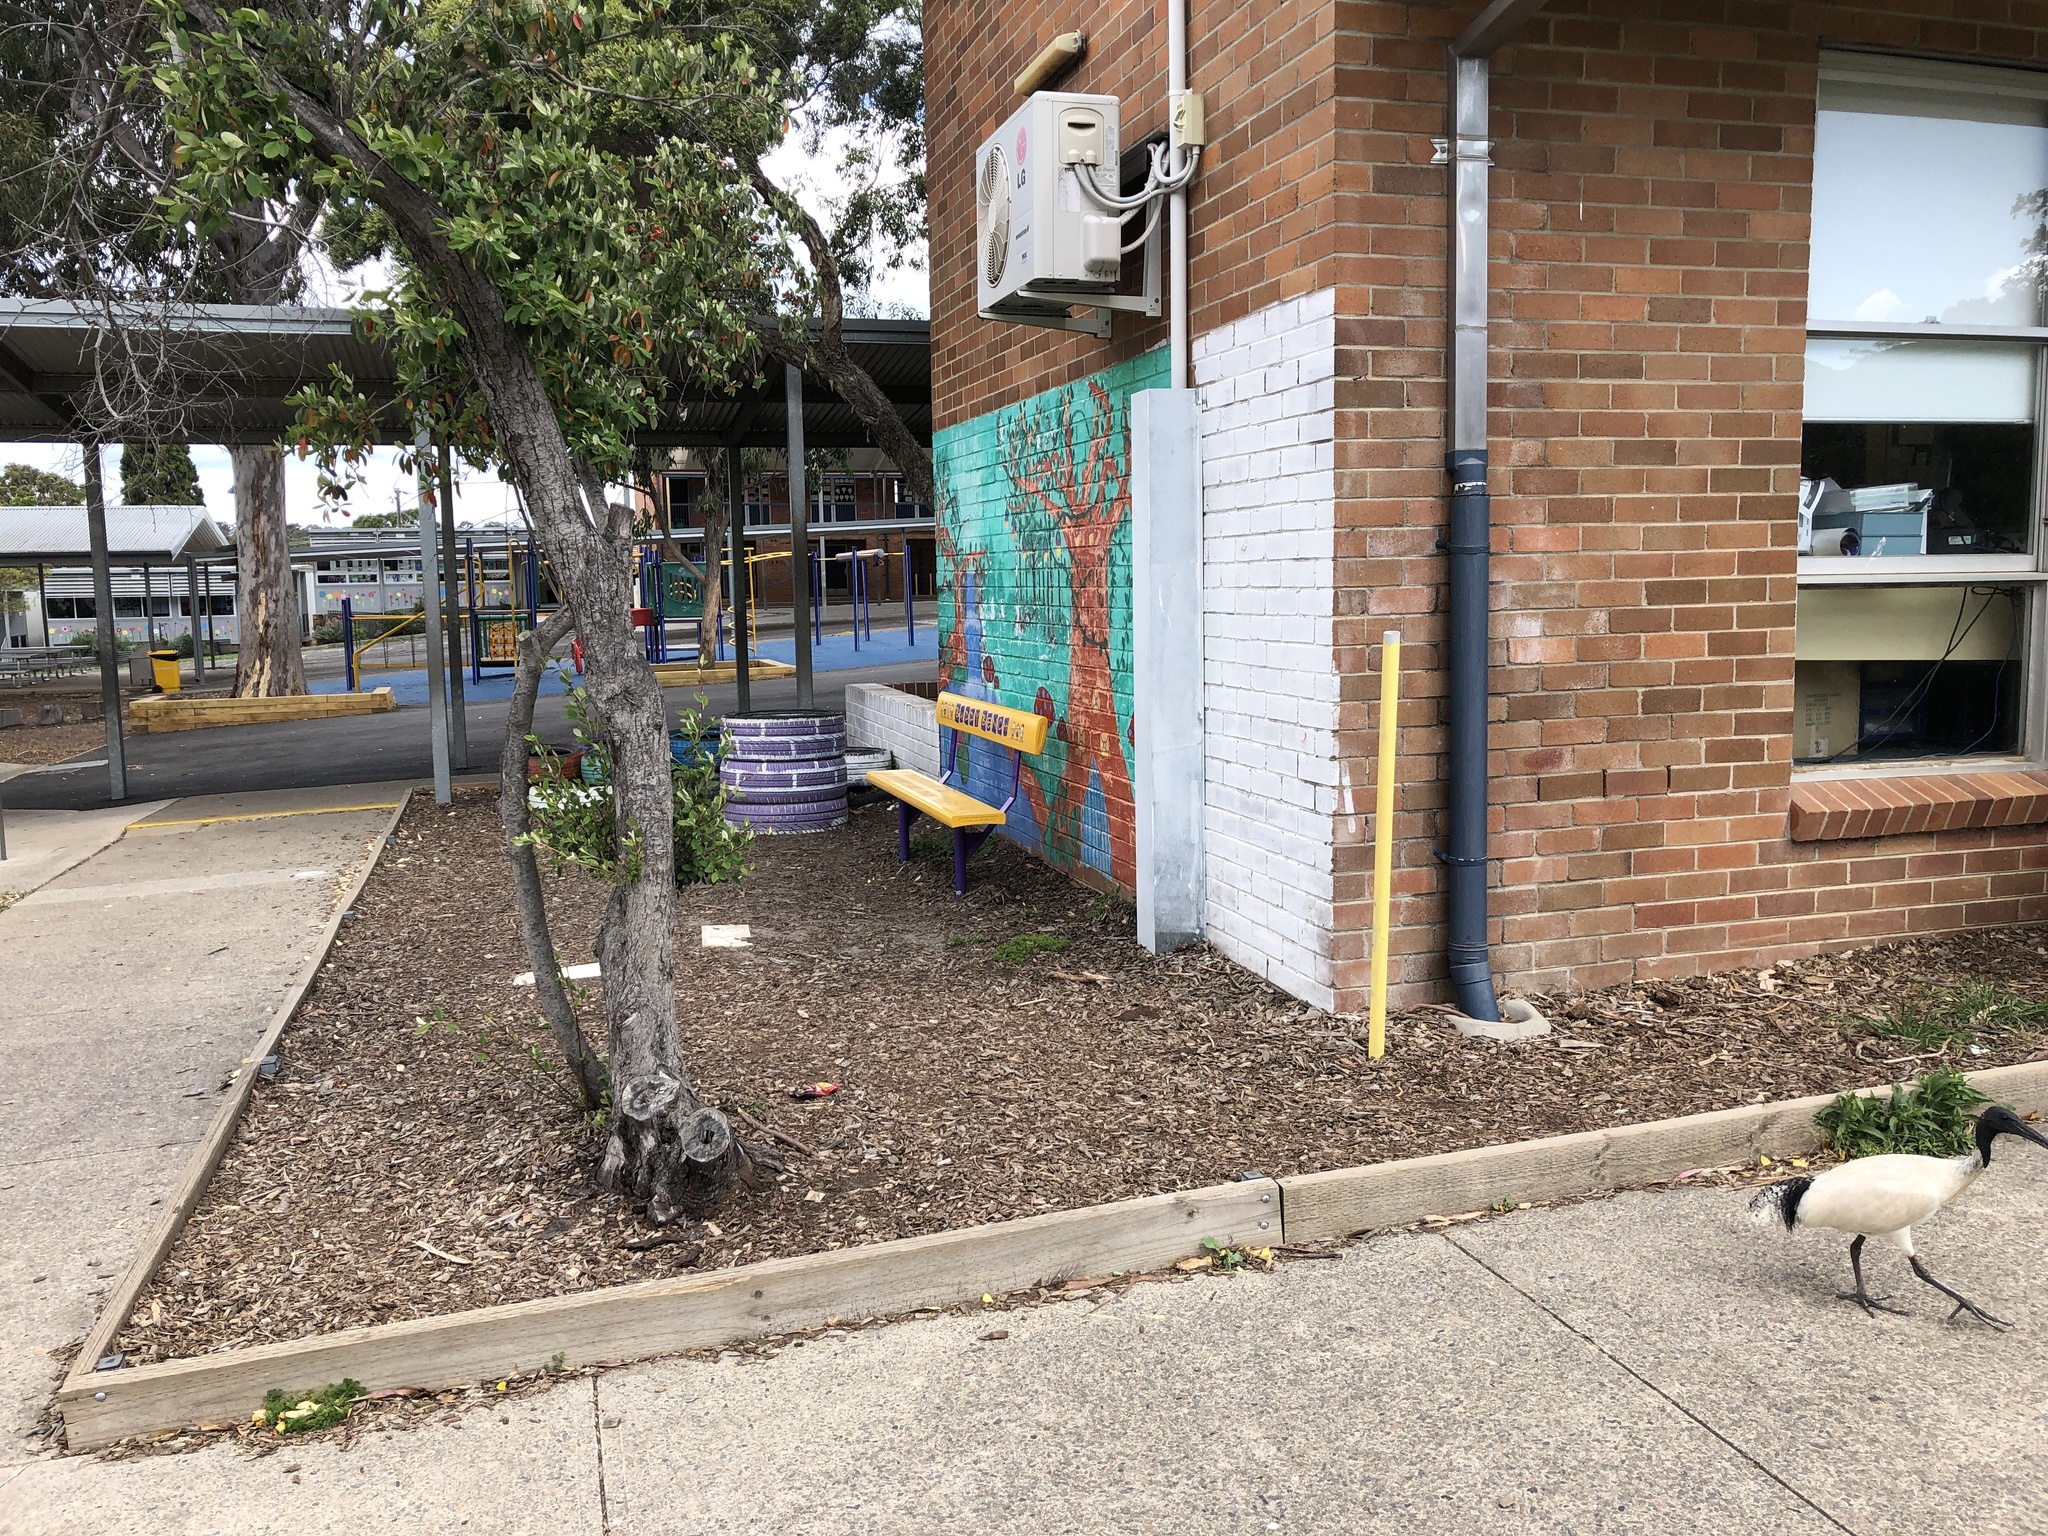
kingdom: Animalia
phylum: Chordata
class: Aves
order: Pelecaniformes
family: Threskiornithidae
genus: Threskiornis
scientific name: Threskiornis molucca
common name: Australian white ibis
